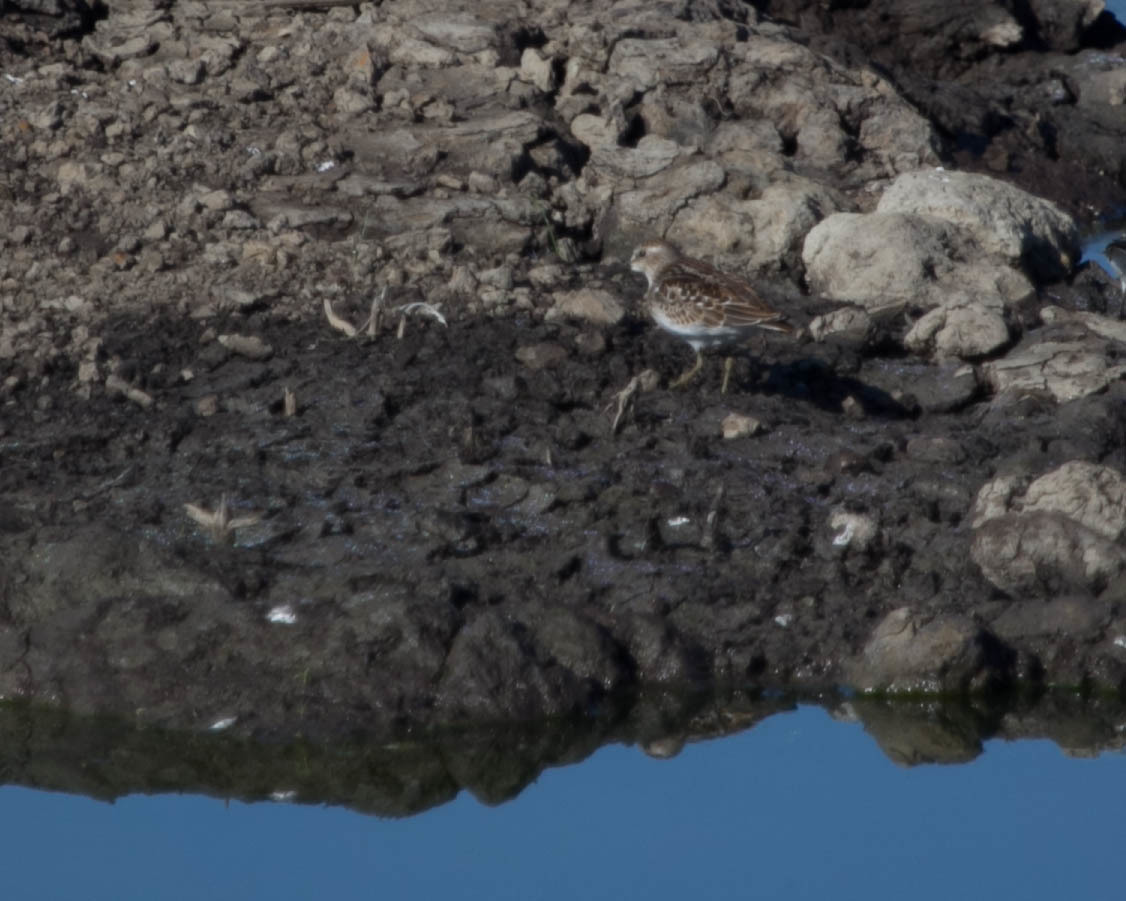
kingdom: Animalia
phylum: Chordata
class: Aves
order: Charadriiformes
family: Scolopacidae
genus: Calidris
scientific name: Calidris minutilla
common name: Least sandpiper
